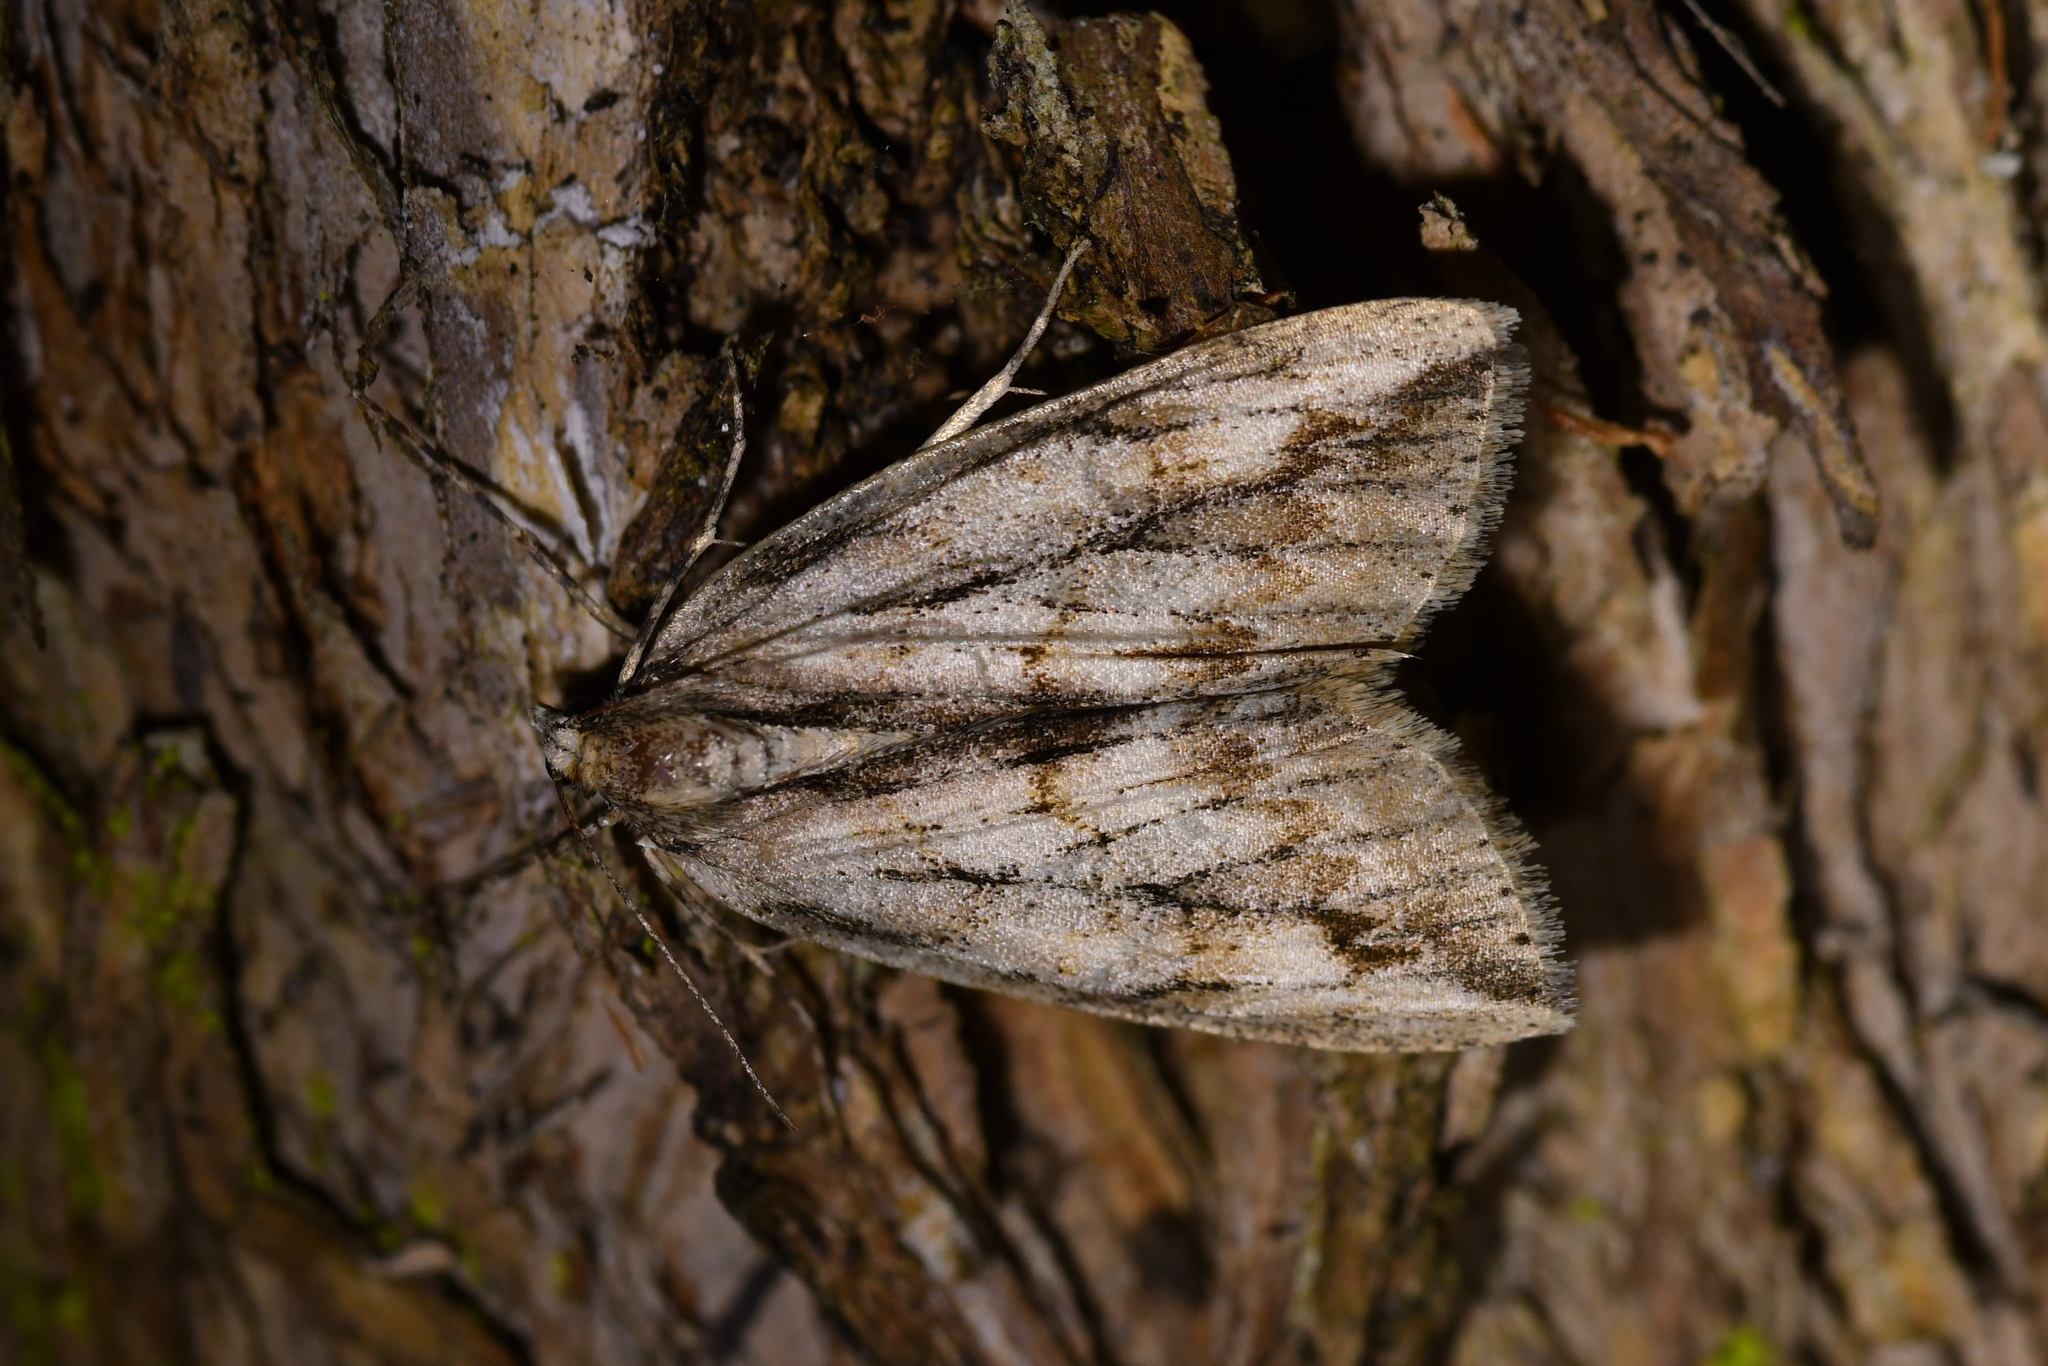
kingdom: Animalia
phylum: Arthropoda
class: Insecta
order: Lepidoptera
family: Geometridae
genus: Pseudocoremia
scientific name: Pseudocoremia lupinata
